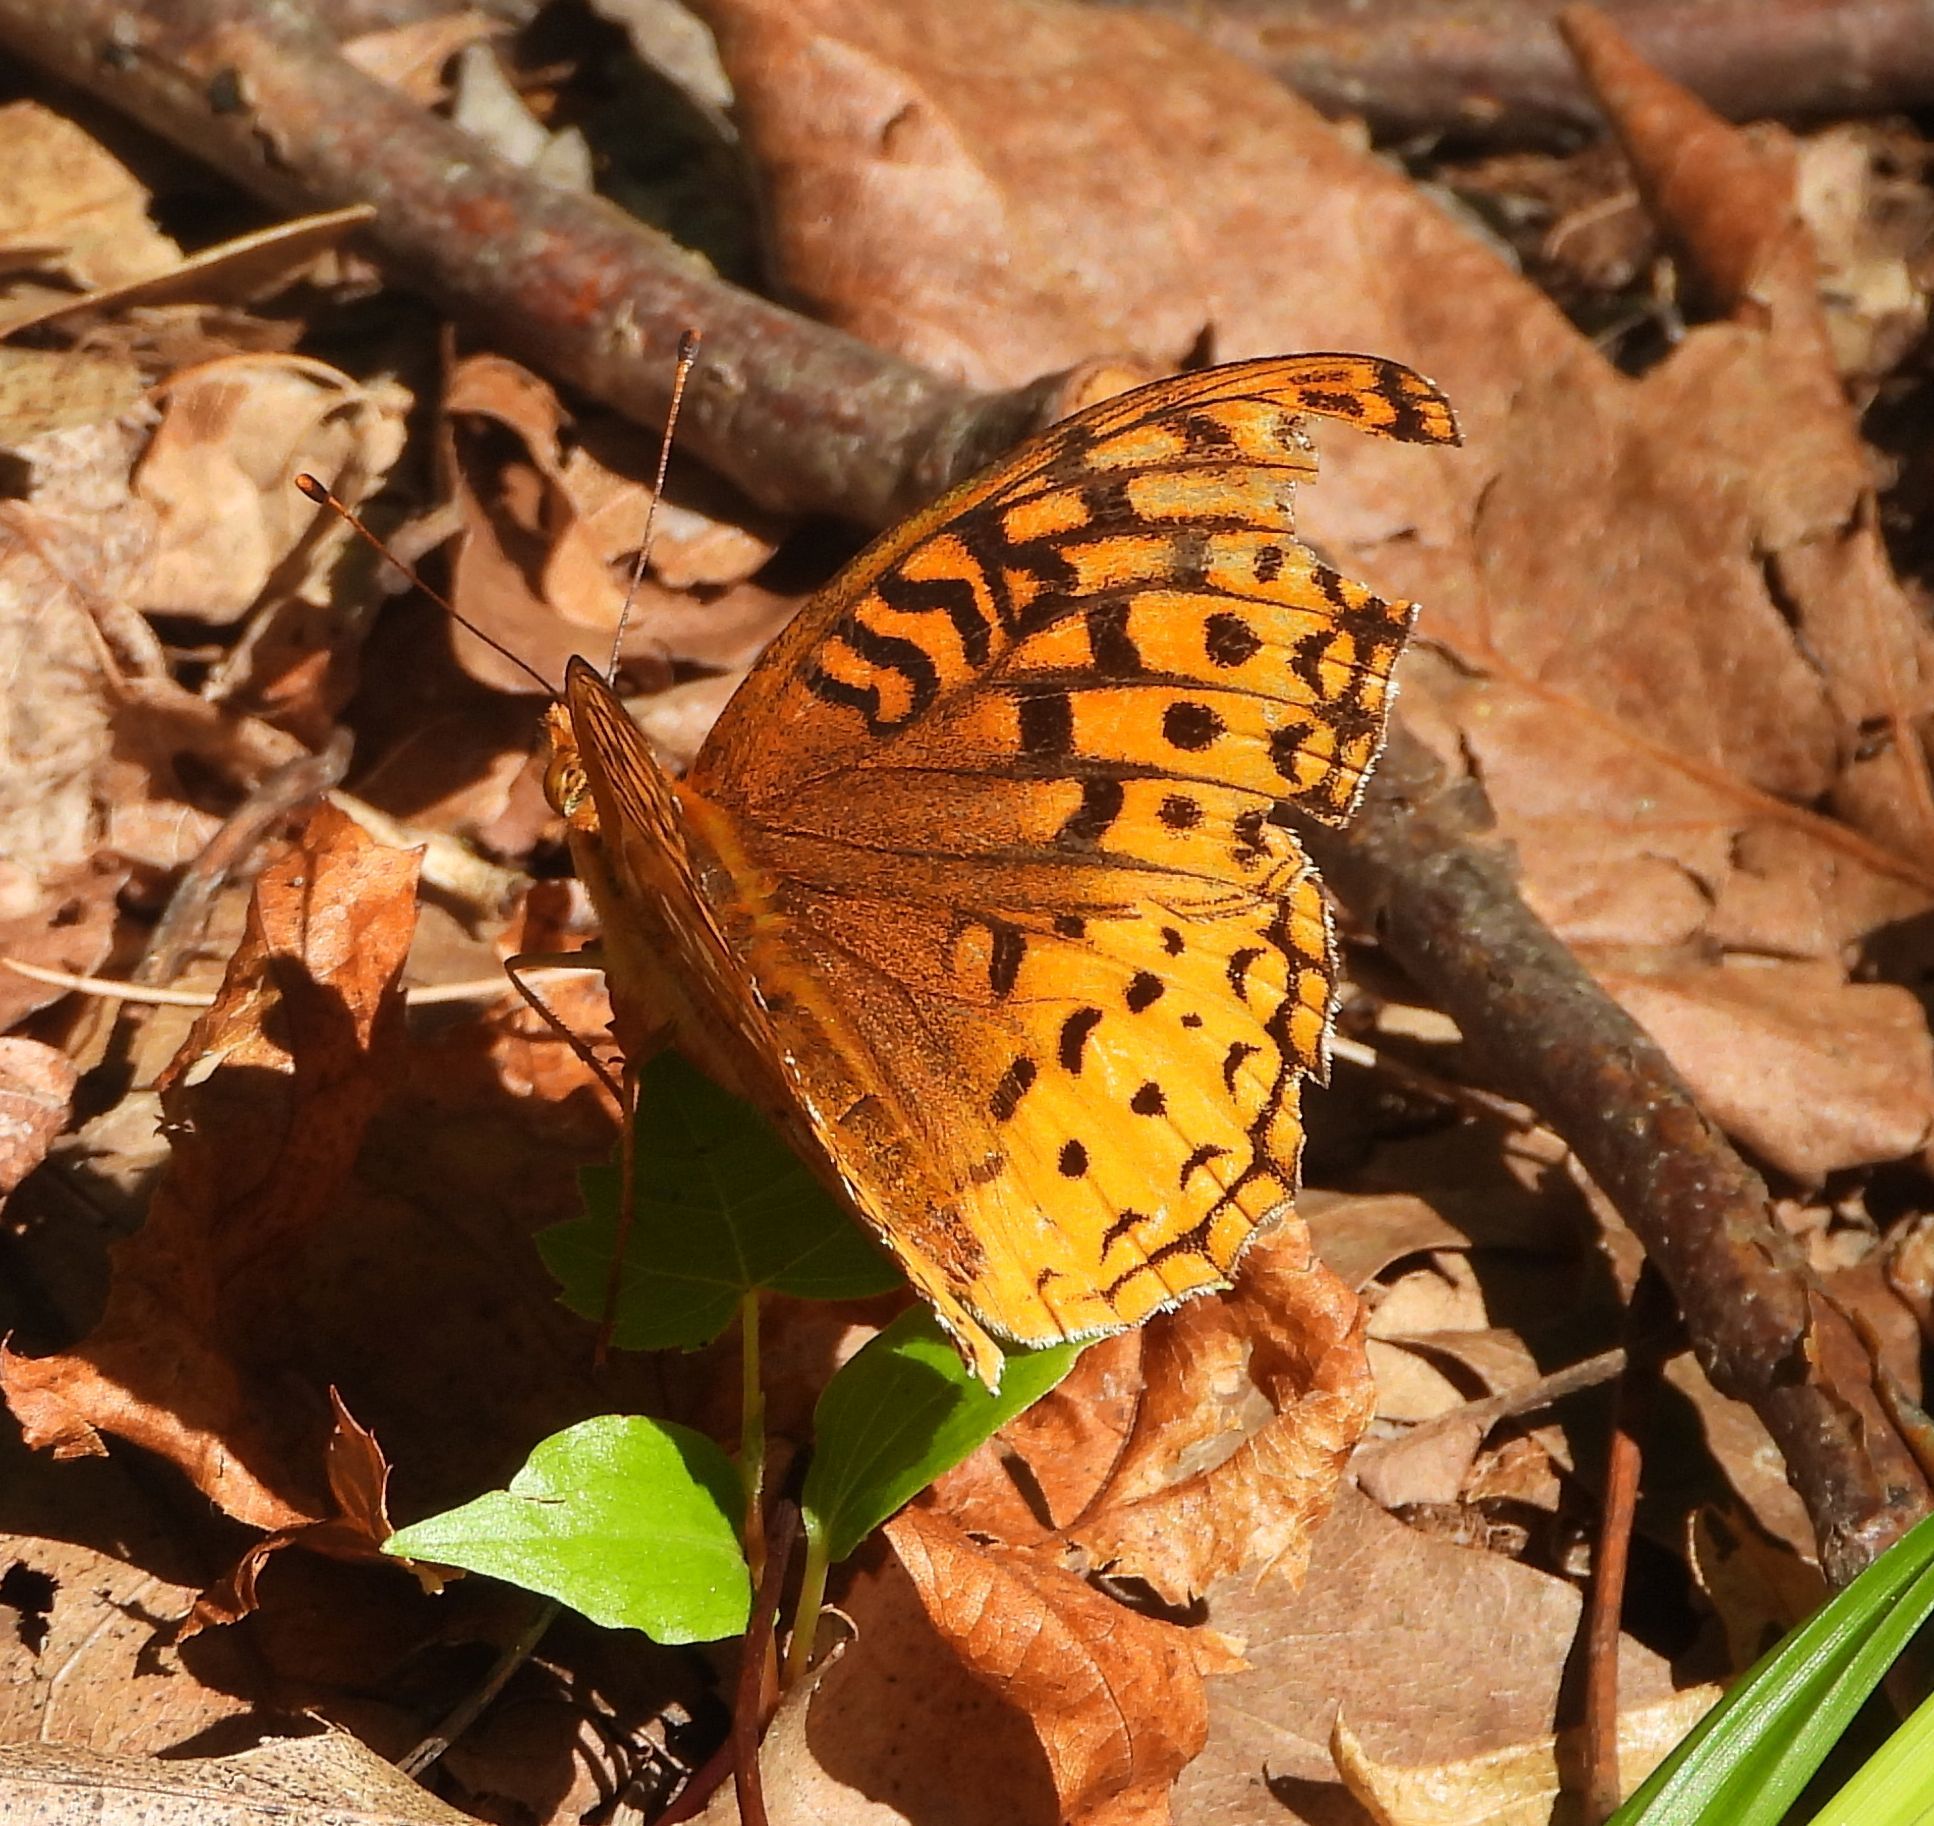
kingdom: Animalia
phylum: Arthropoda
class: Insecta
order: Lepidoptera
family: Nymphalidae
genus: Speyeria
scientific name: Speyeria cybele
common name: Great spangled fritillary
